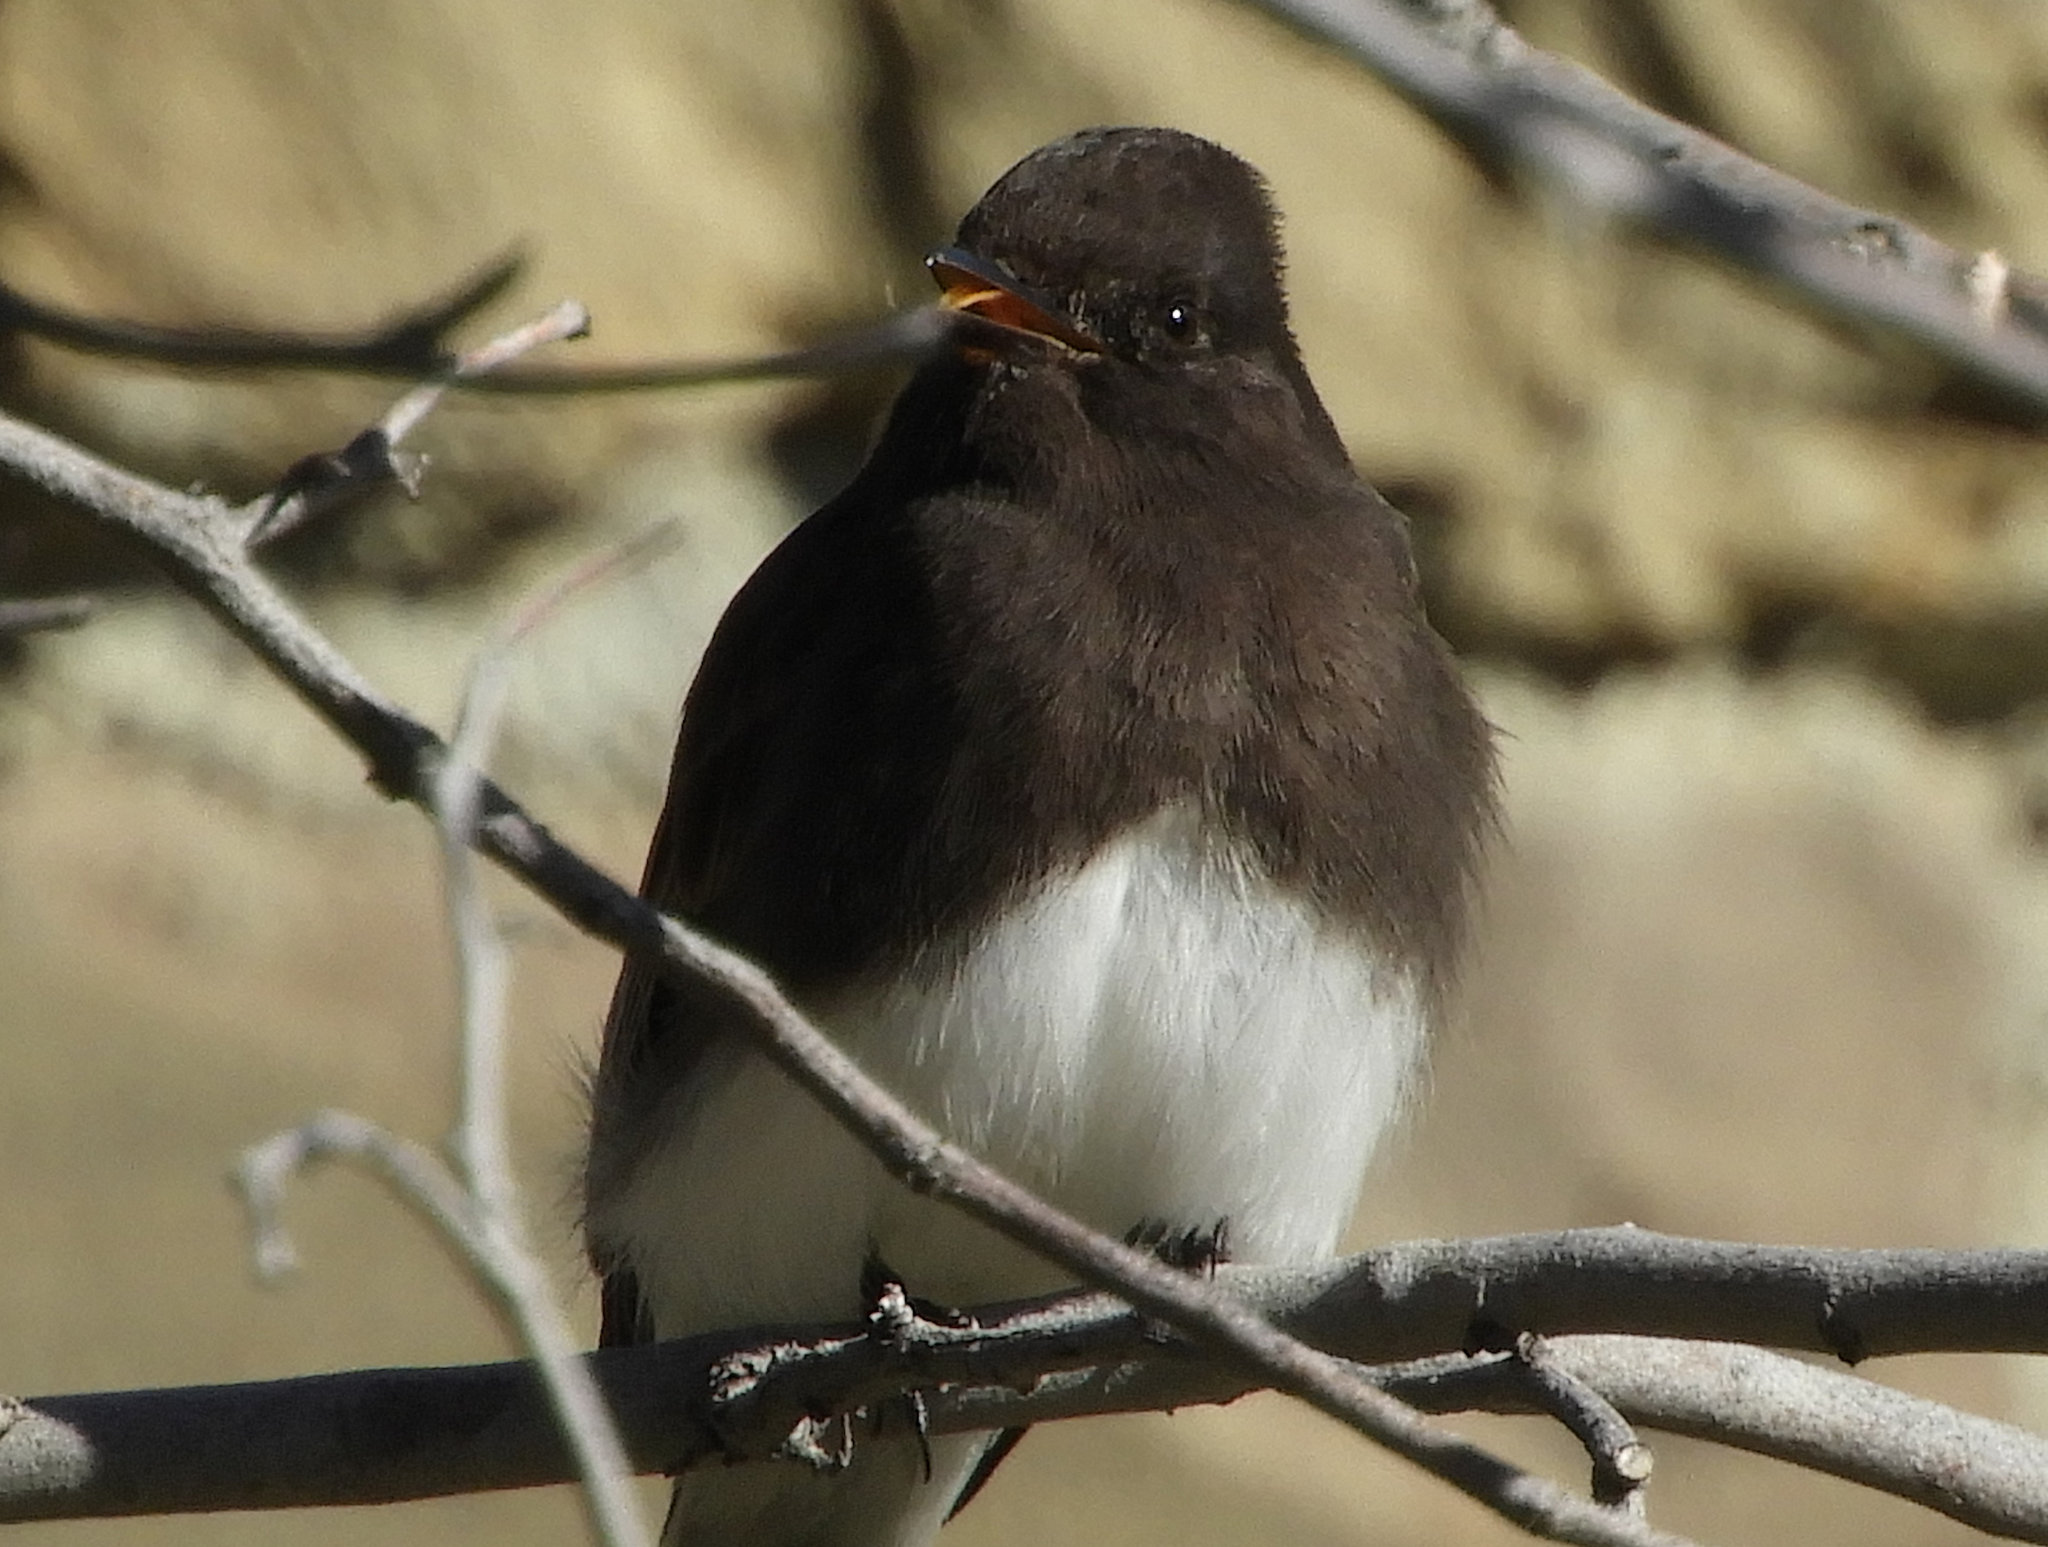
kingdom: Animalia
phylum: Chordata
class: Aves
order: Passeriformes
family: Tyrannidae
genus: Sayornis
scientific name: Sayornis nigricans
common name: Black phoebe
